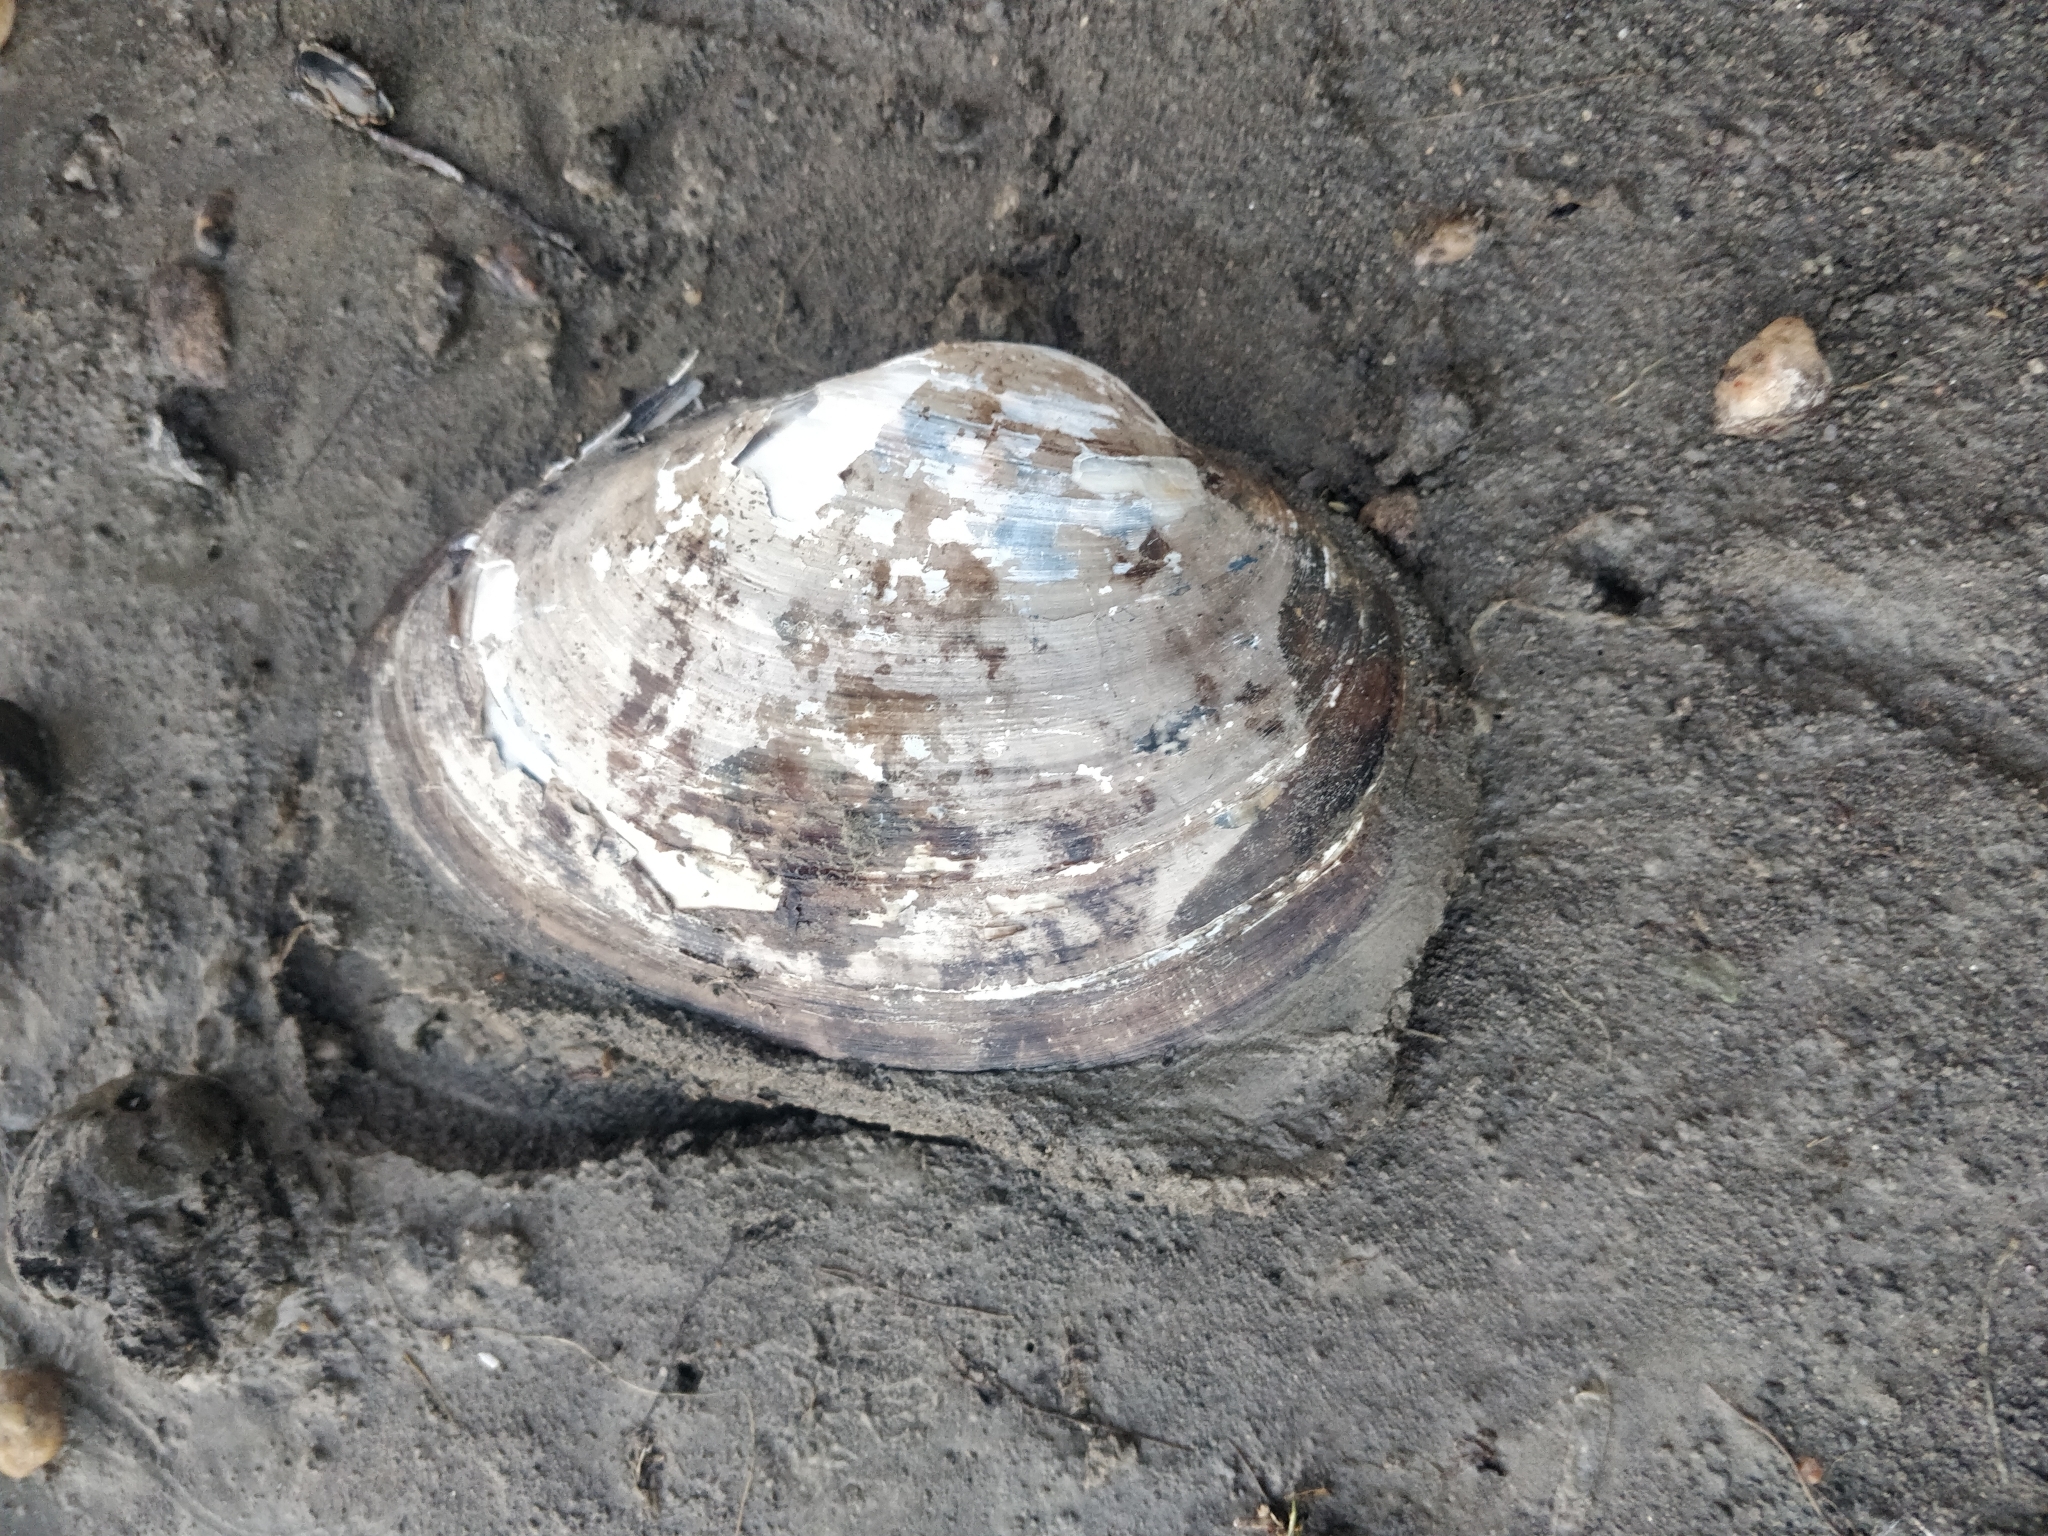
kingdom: Animalia
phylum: Mollusca
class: Bivalvia
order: Unionida
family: Unionidae
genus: Pyganodon
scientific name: Pyganodon grandis
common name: Giant floater
